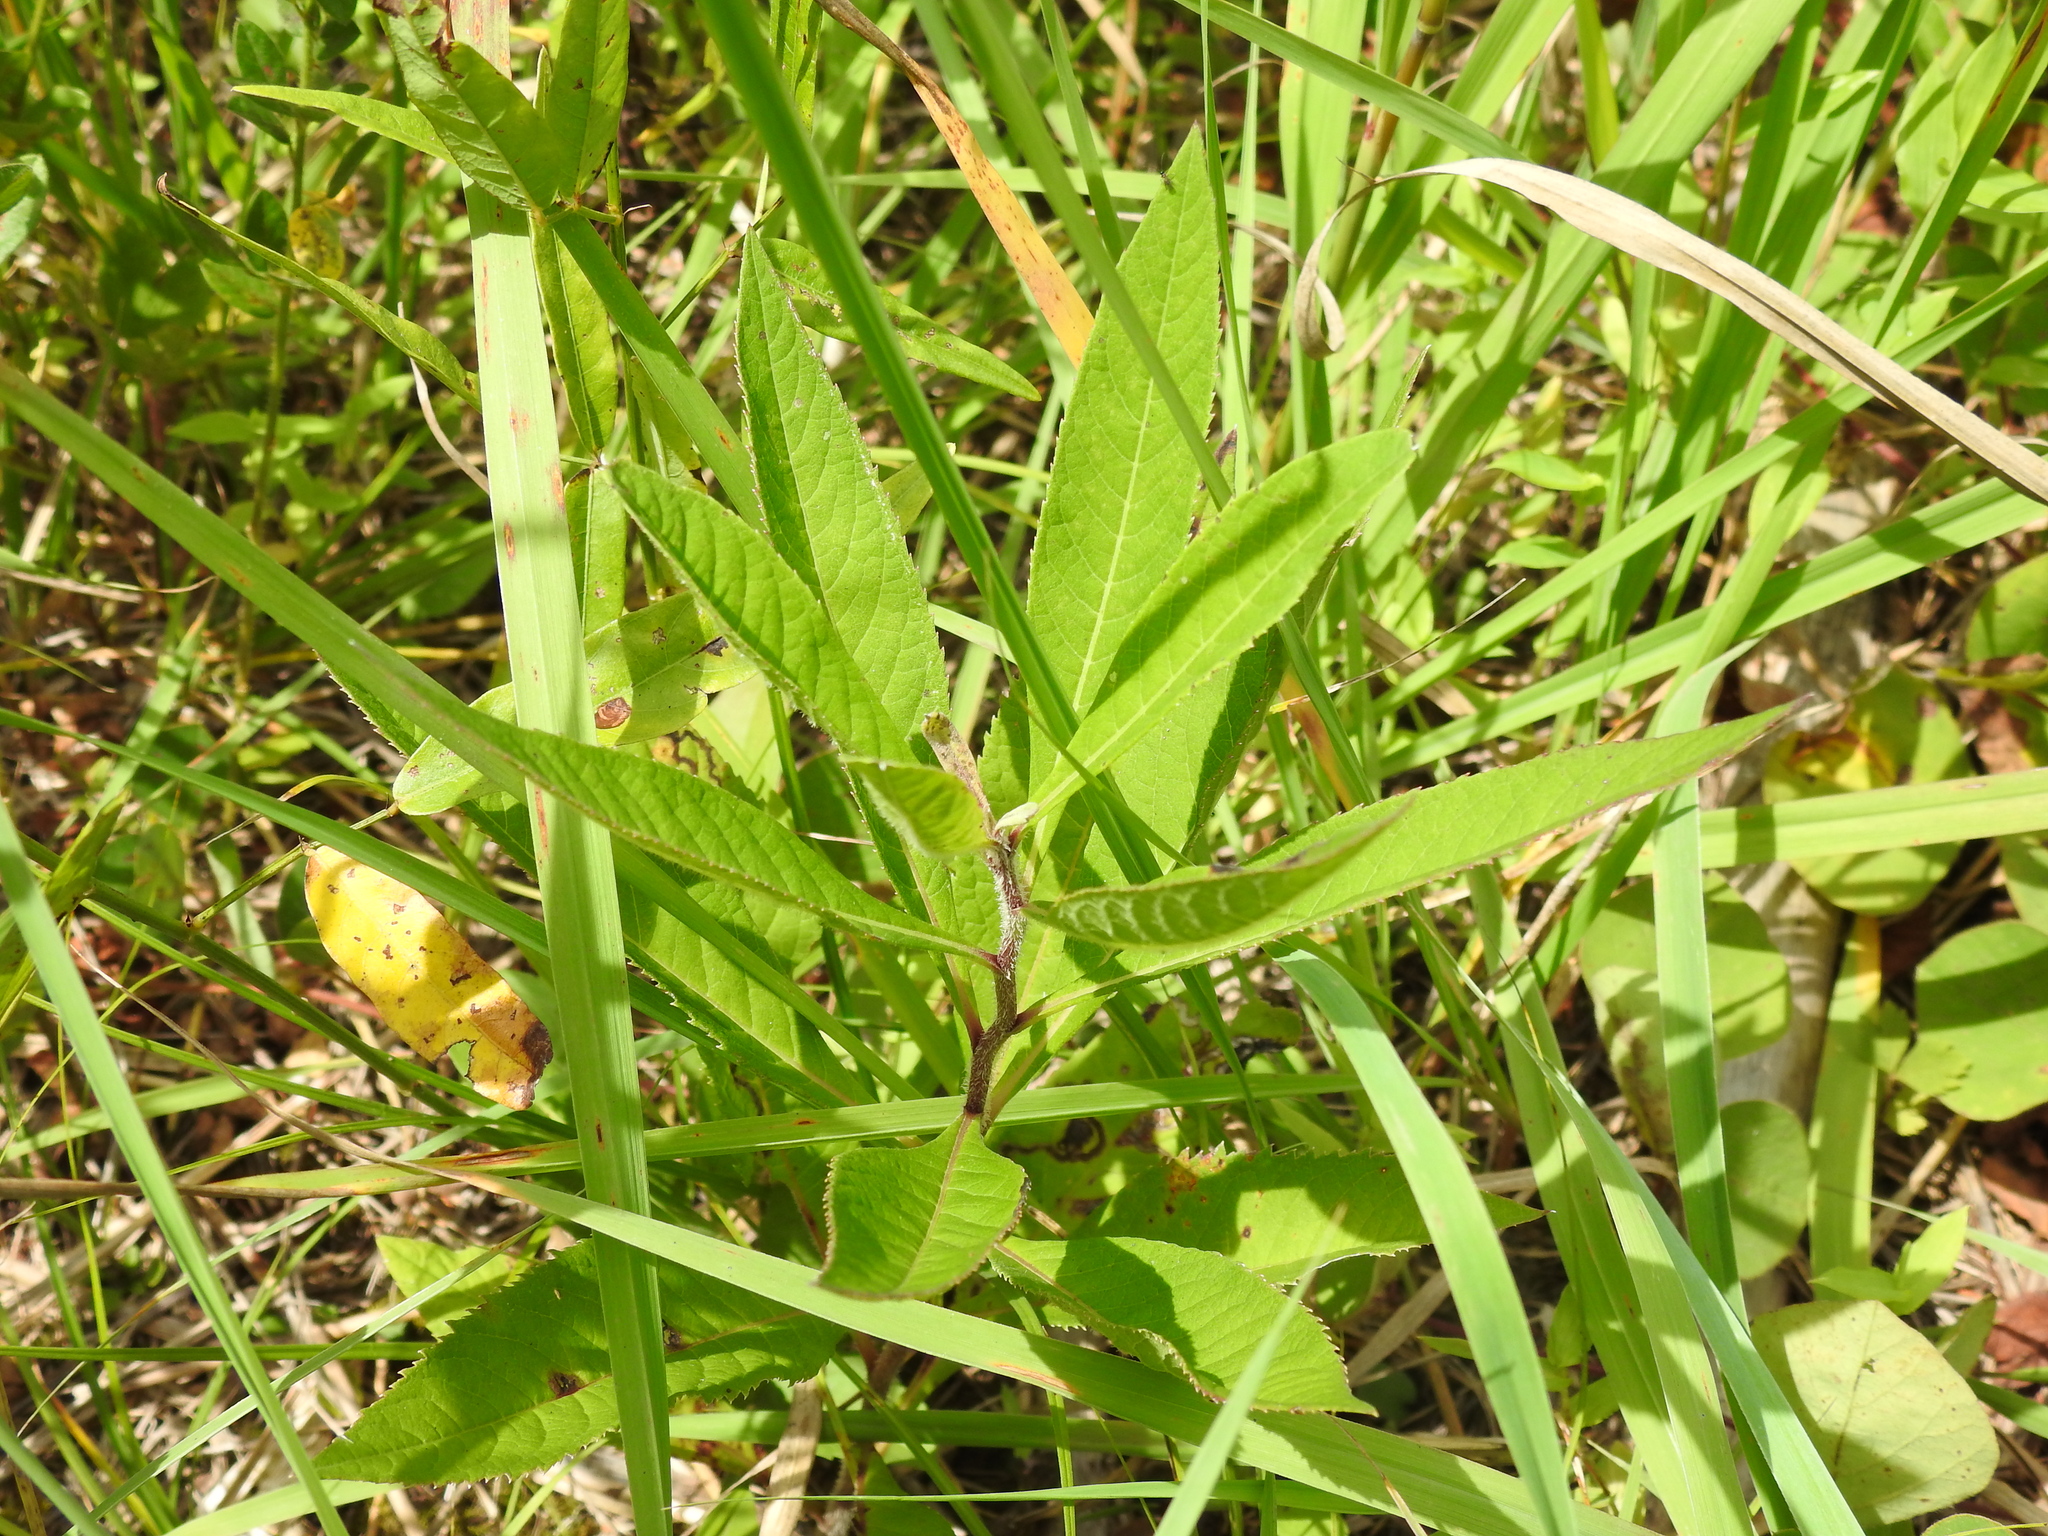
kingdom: Plantae
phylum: Tracheophyta
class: Magnoliopsida
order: Asterales
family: Asteraceae
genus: Vernonia
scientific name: Vernonia gigantea
